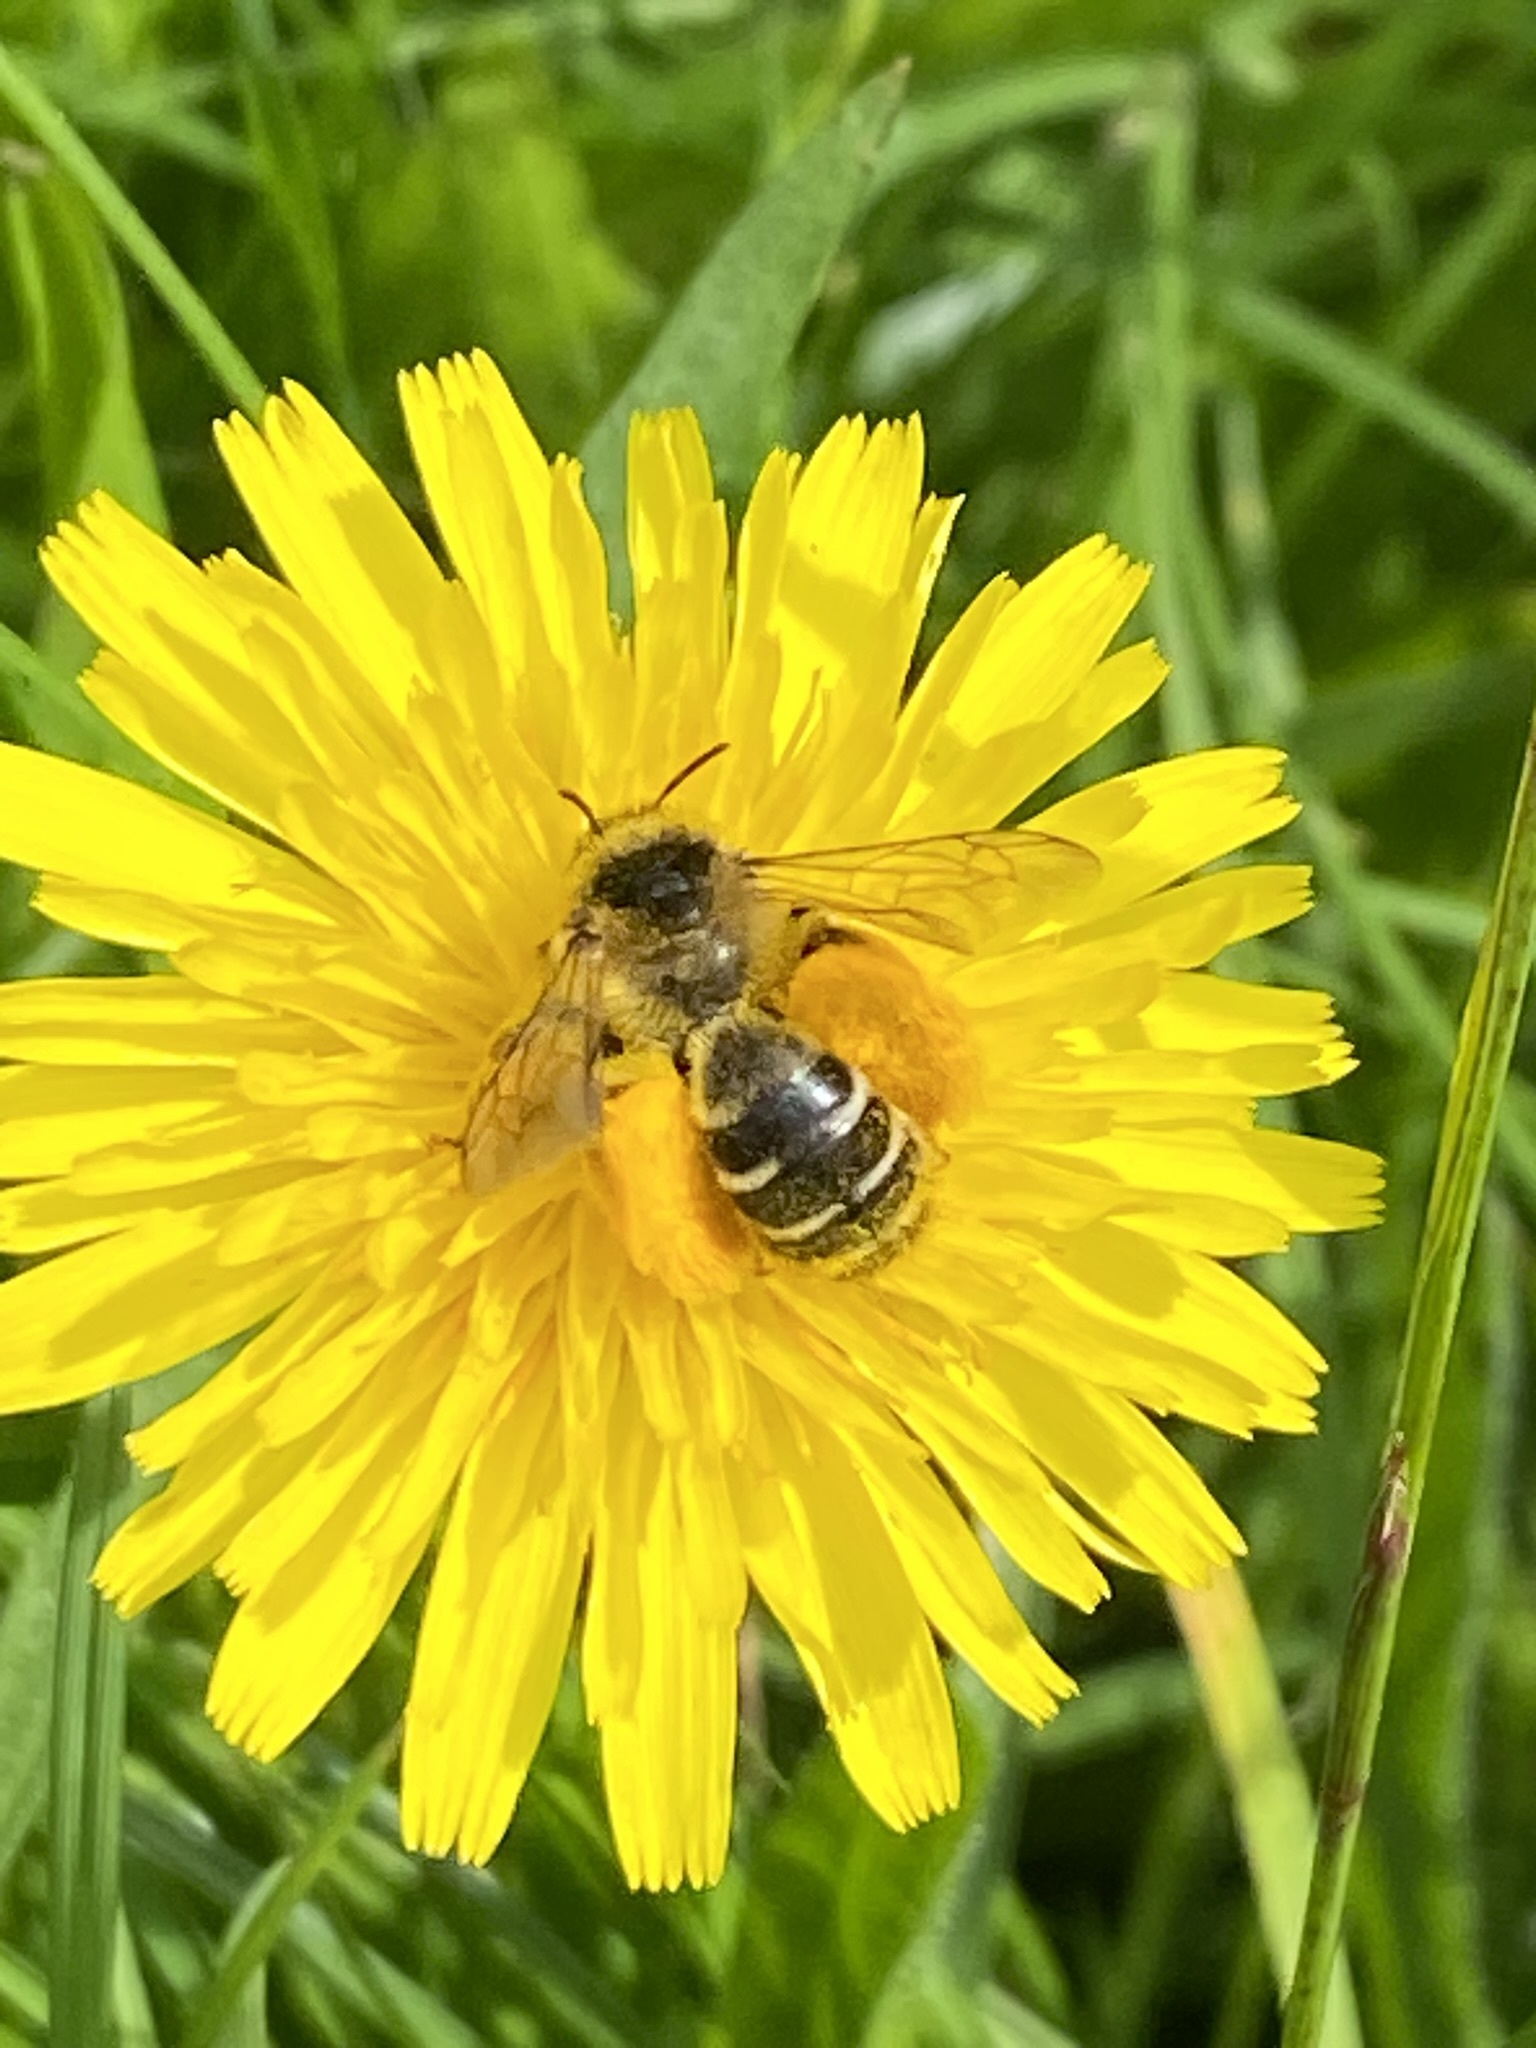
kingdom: Animalia
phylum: Arthropoda
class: Insecta
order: Hymenoptera
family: Melittidae
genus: Dasypoda
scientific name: Dasypoda hirtipes
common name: Pantaloon bee
